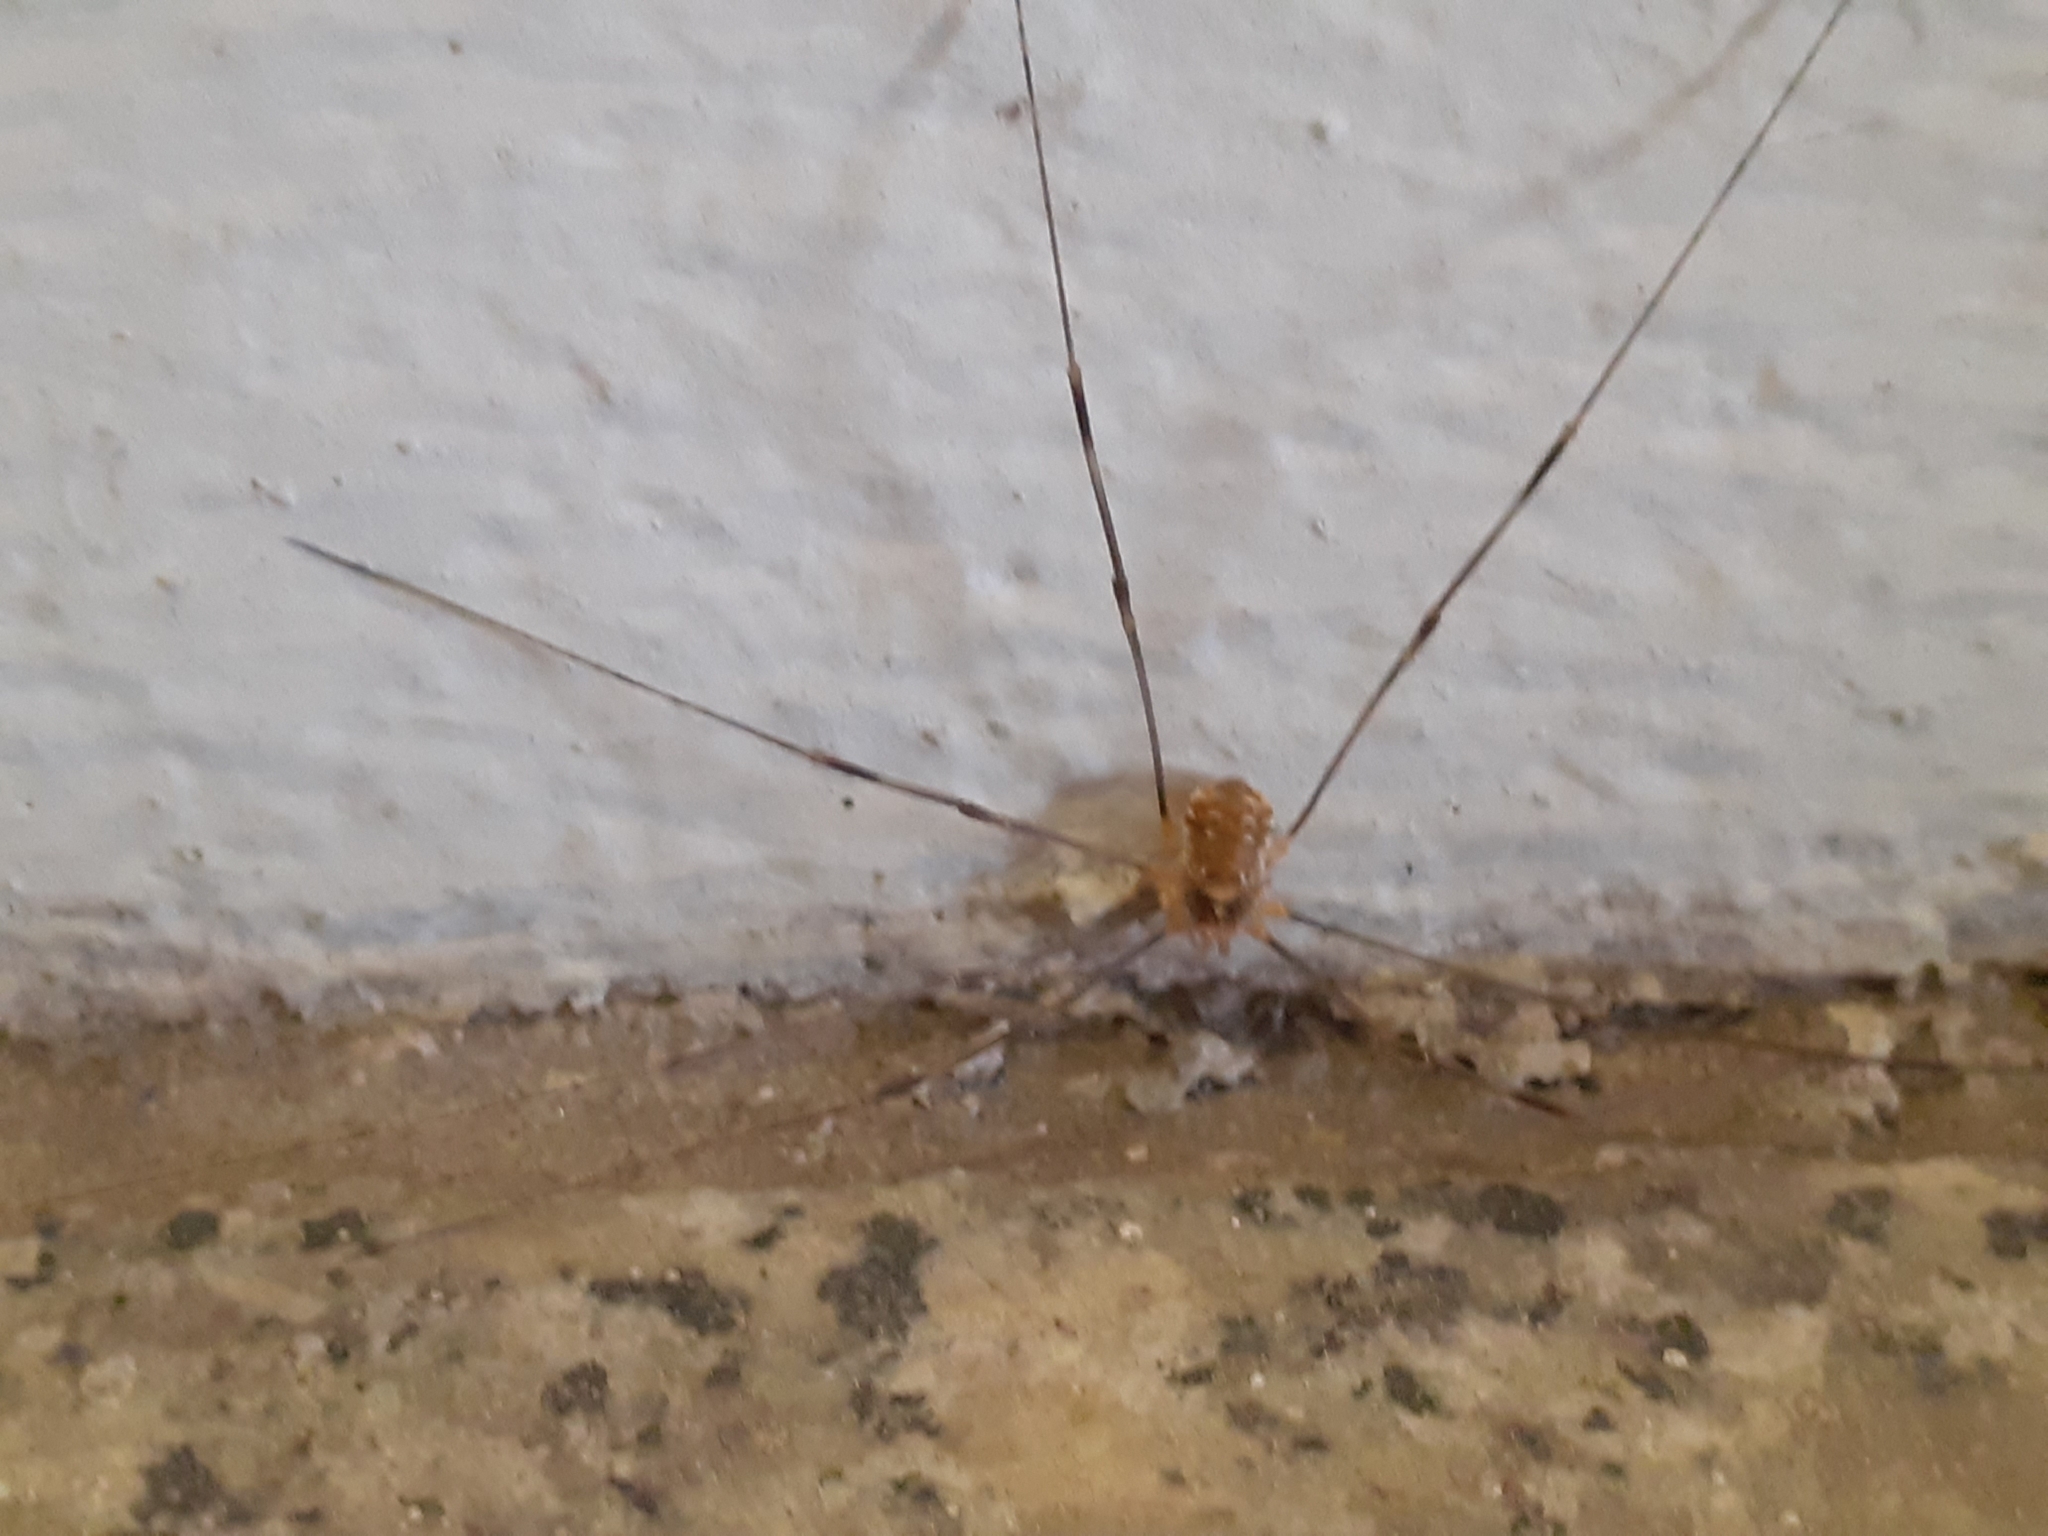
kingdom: Animalia
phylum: Arthropoda
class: Arachnida
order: Opiliones
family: Phalangiidae
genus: Opilio
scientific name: Opilio canestrinii
